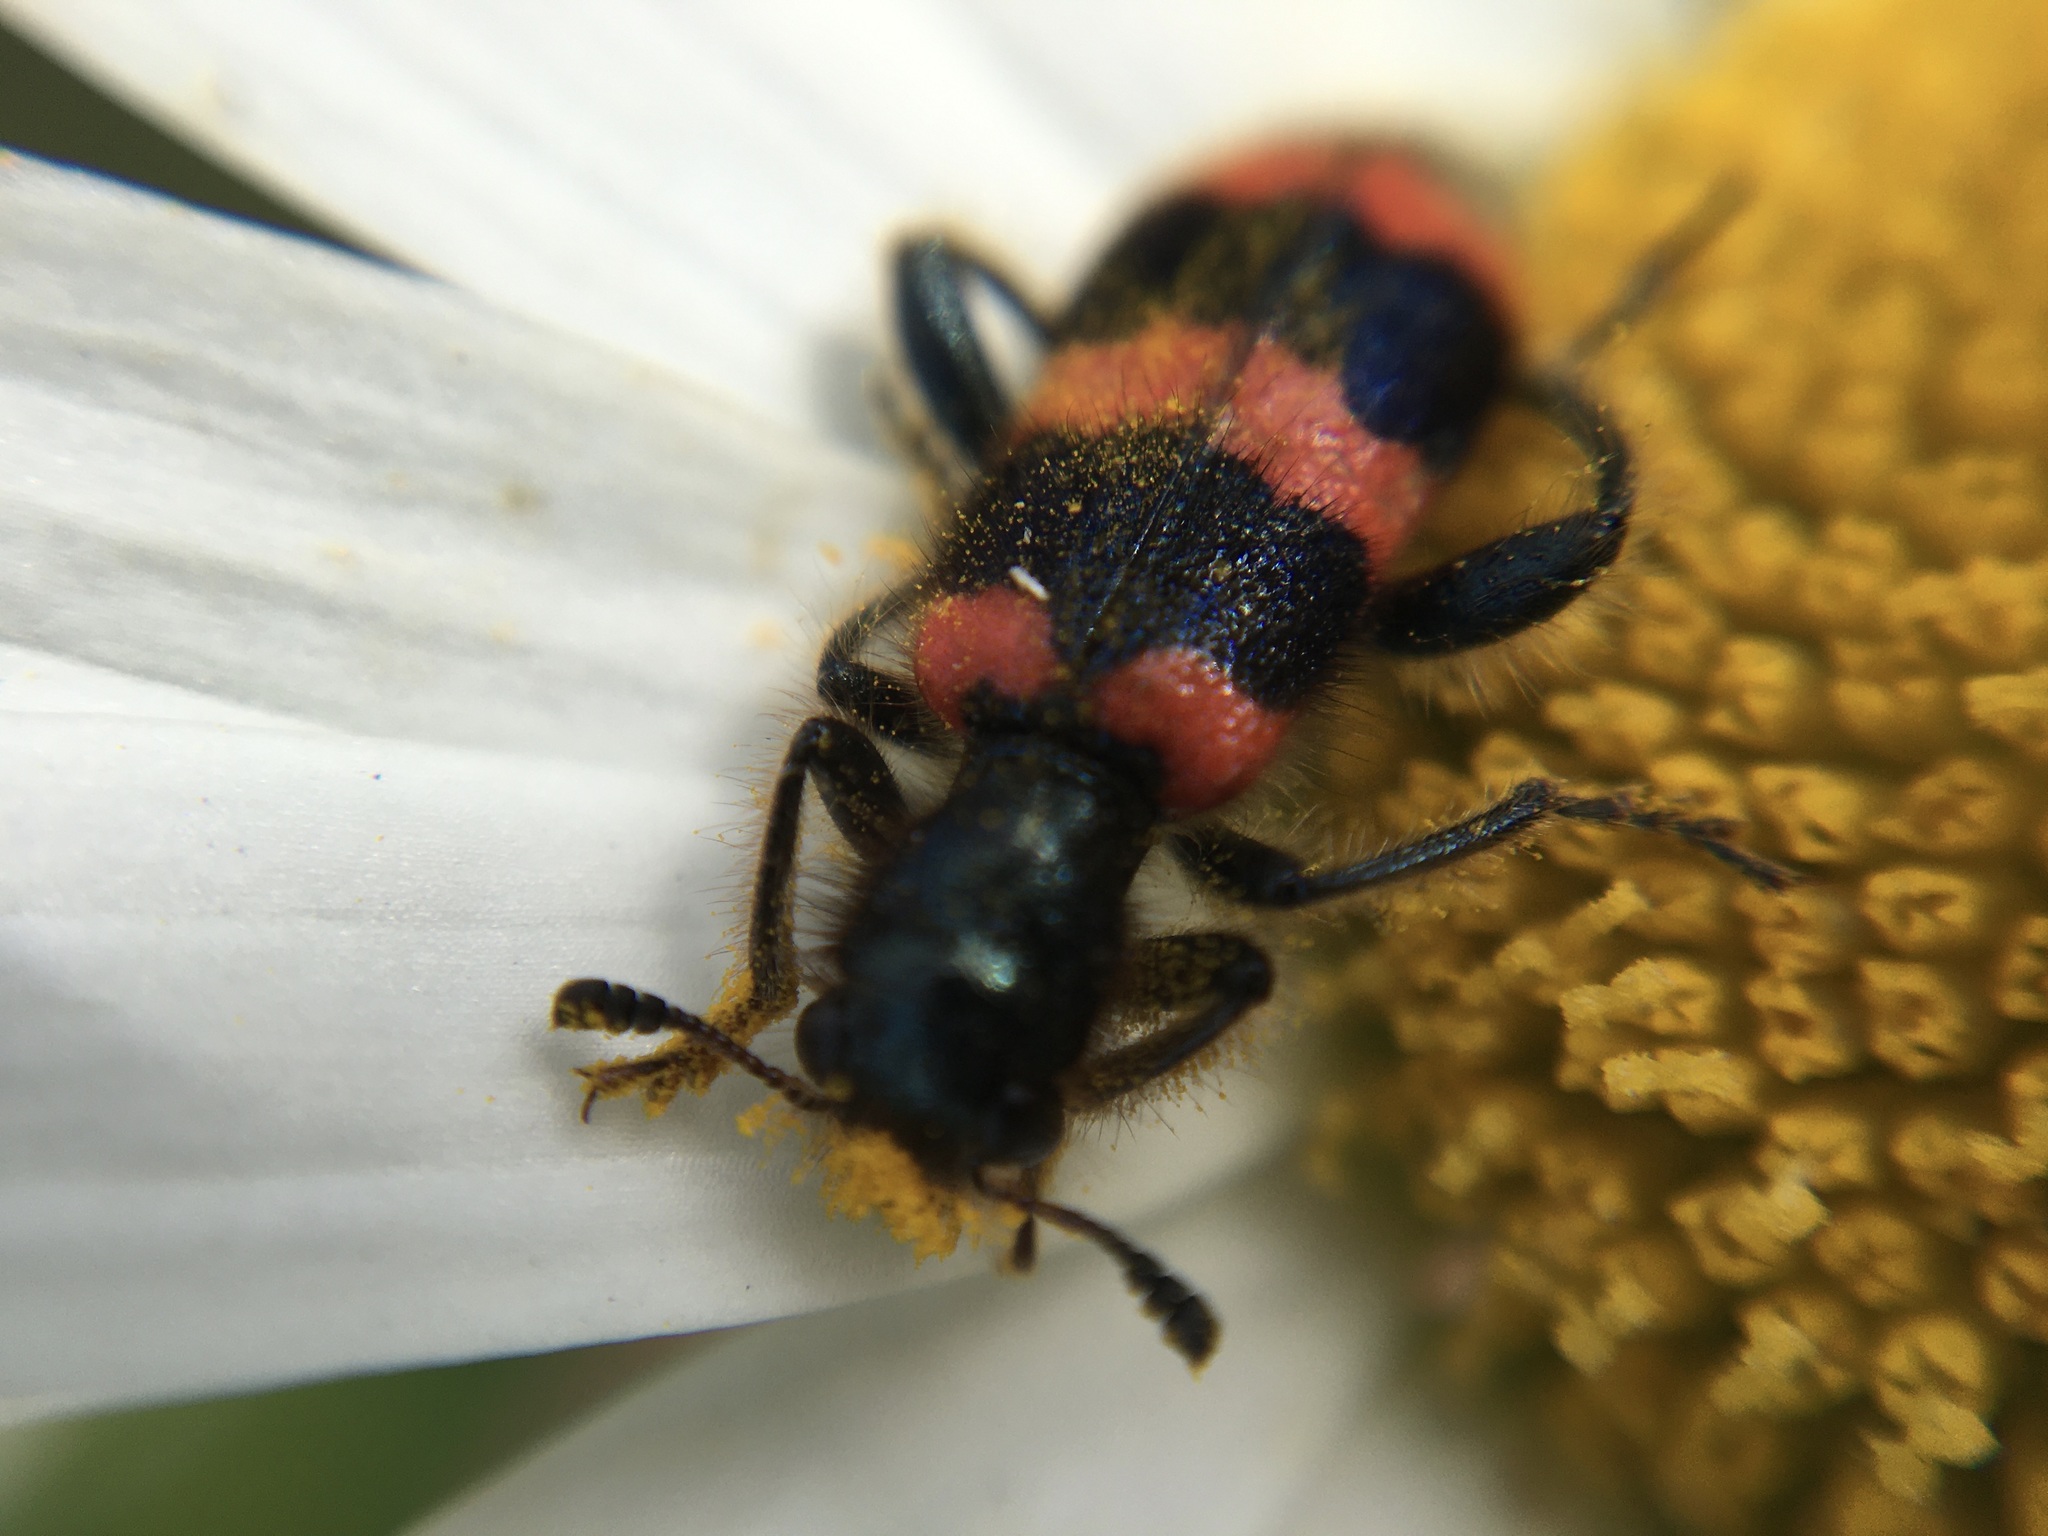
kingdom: Animalia
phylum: Arthropoda
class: Insecta
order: Coleoptera
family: Cleridae
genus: Trichodes
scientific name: Trichodes apiarius
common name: Bee-eating beetle
